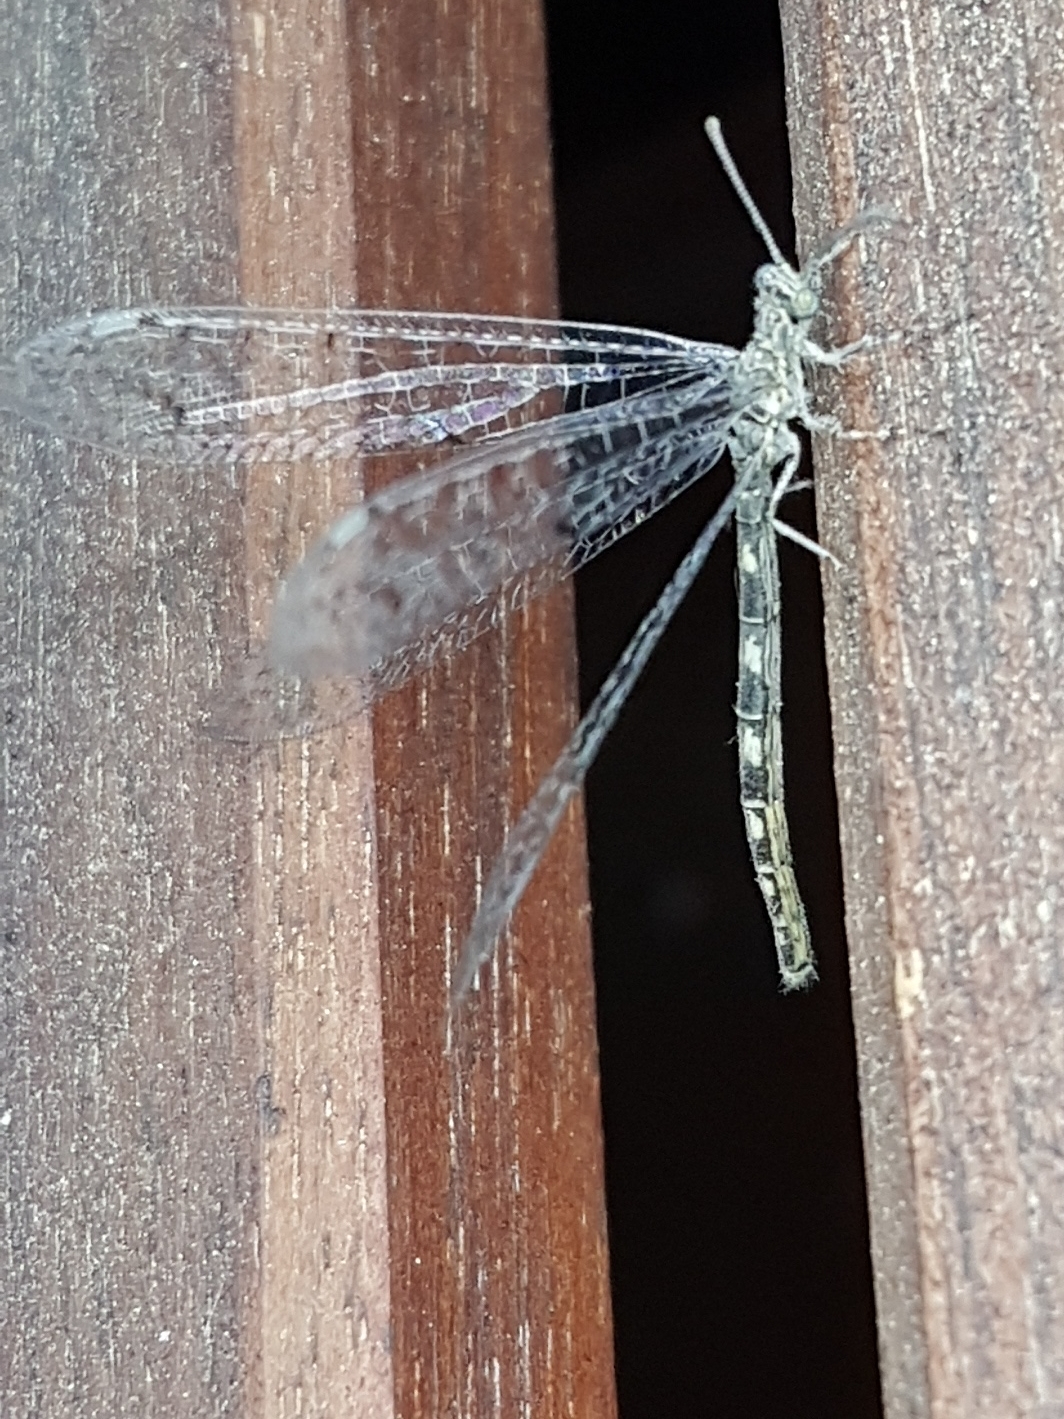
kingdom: Animalia
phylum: Arthropoda
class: Insecta
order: Neuroptera
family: Myrmeleontidae
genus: Neuroleon
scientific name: Neuroleon egenus
